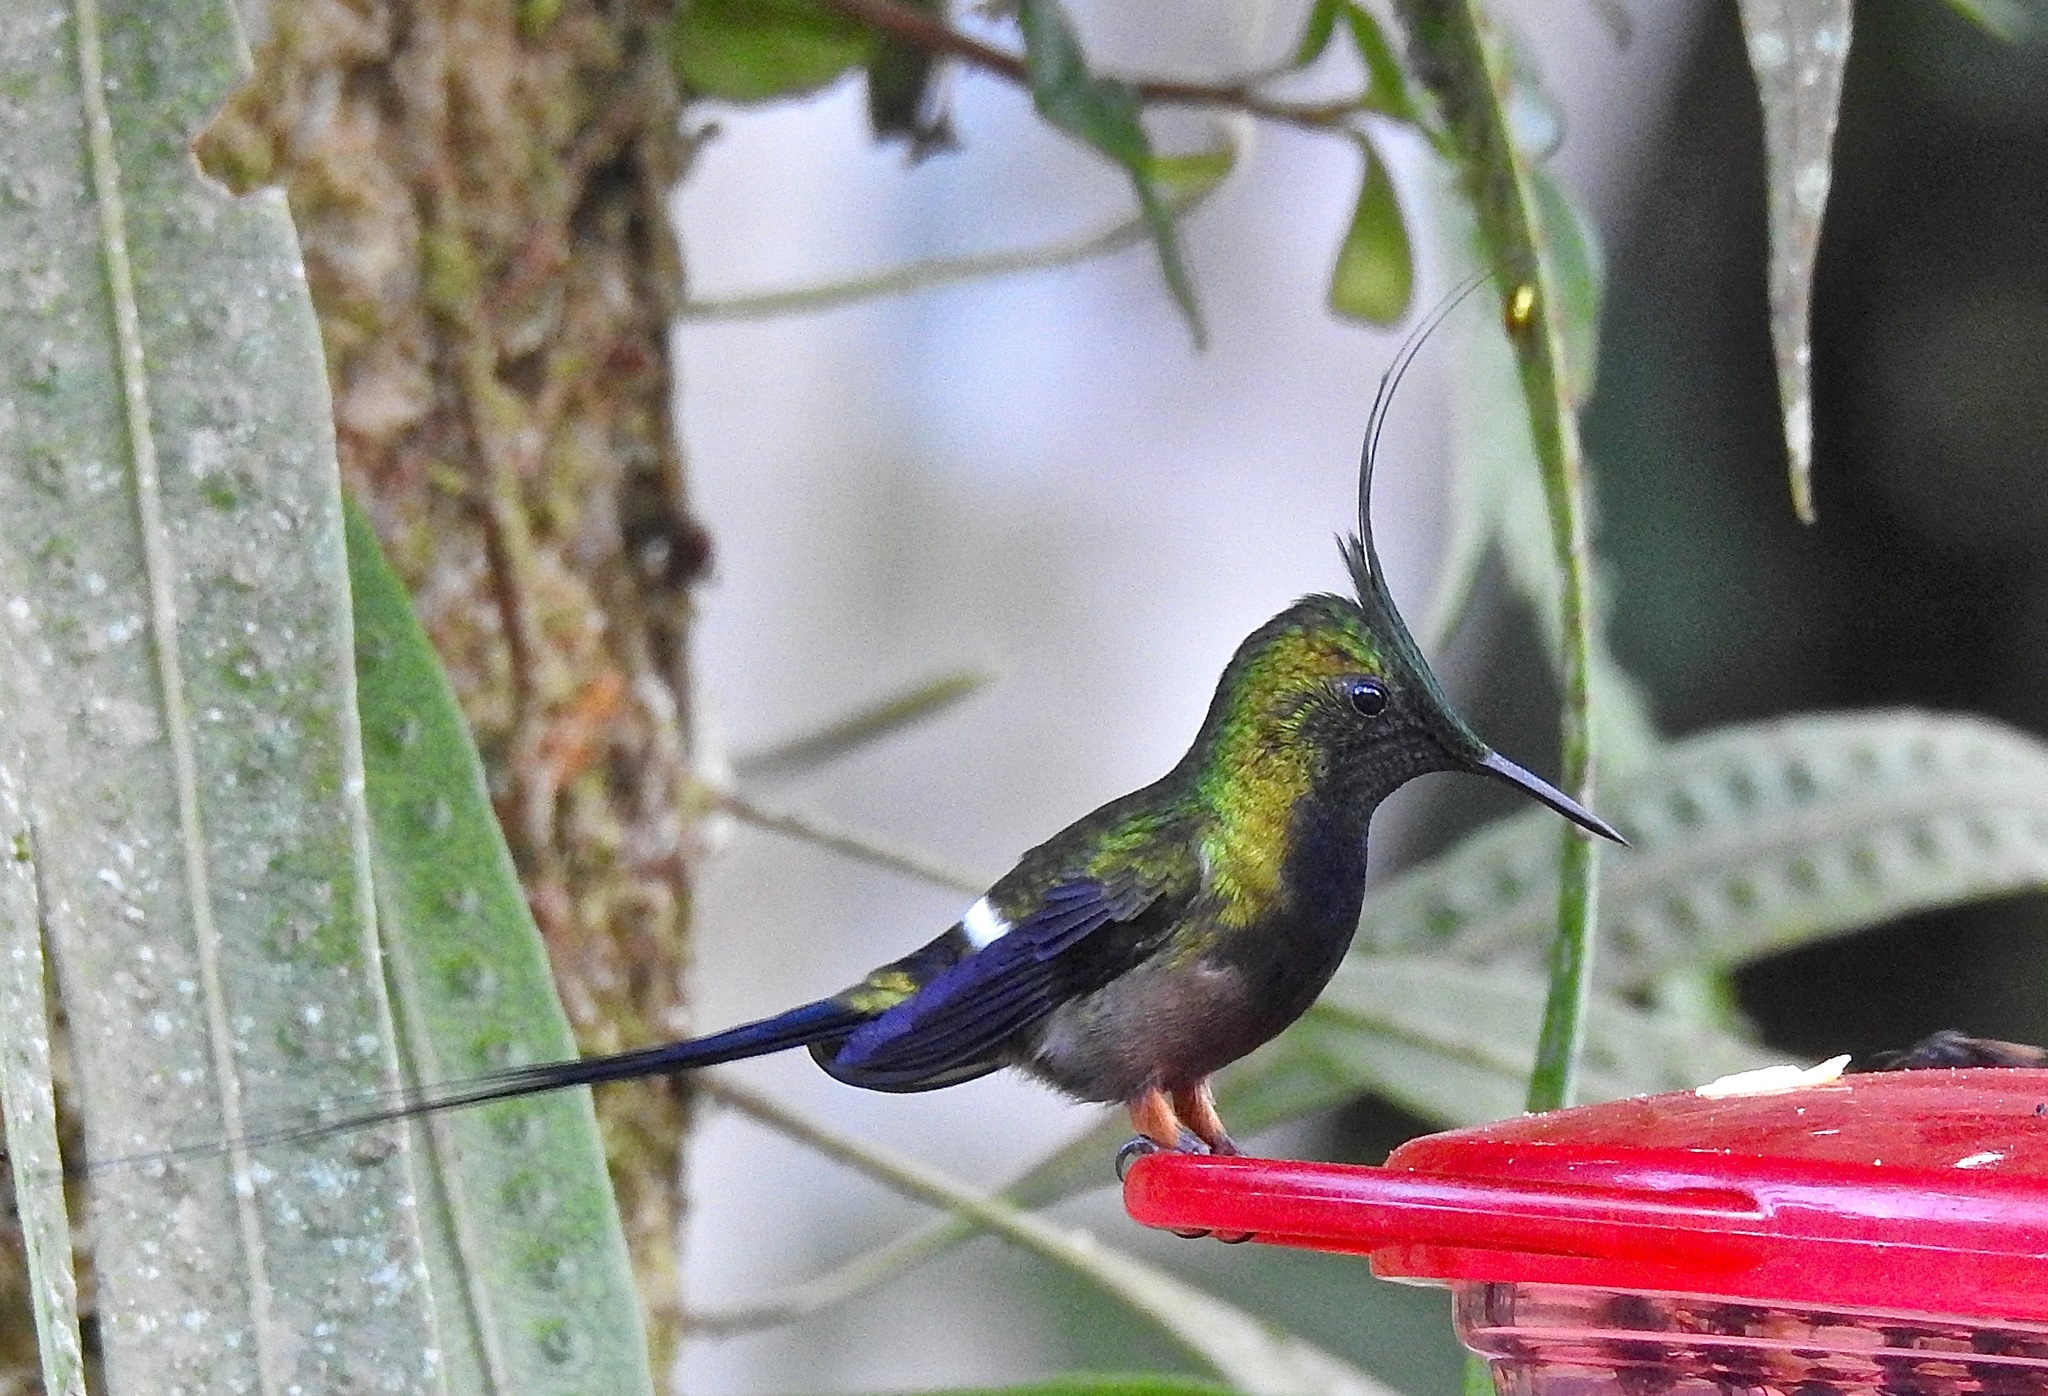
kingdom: Animalia
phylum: Chordata
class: Aves
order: Apodiformes
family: Trochilidae
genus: Discosura
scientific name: Discosura popelairii
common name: Wire-crested thorntail
